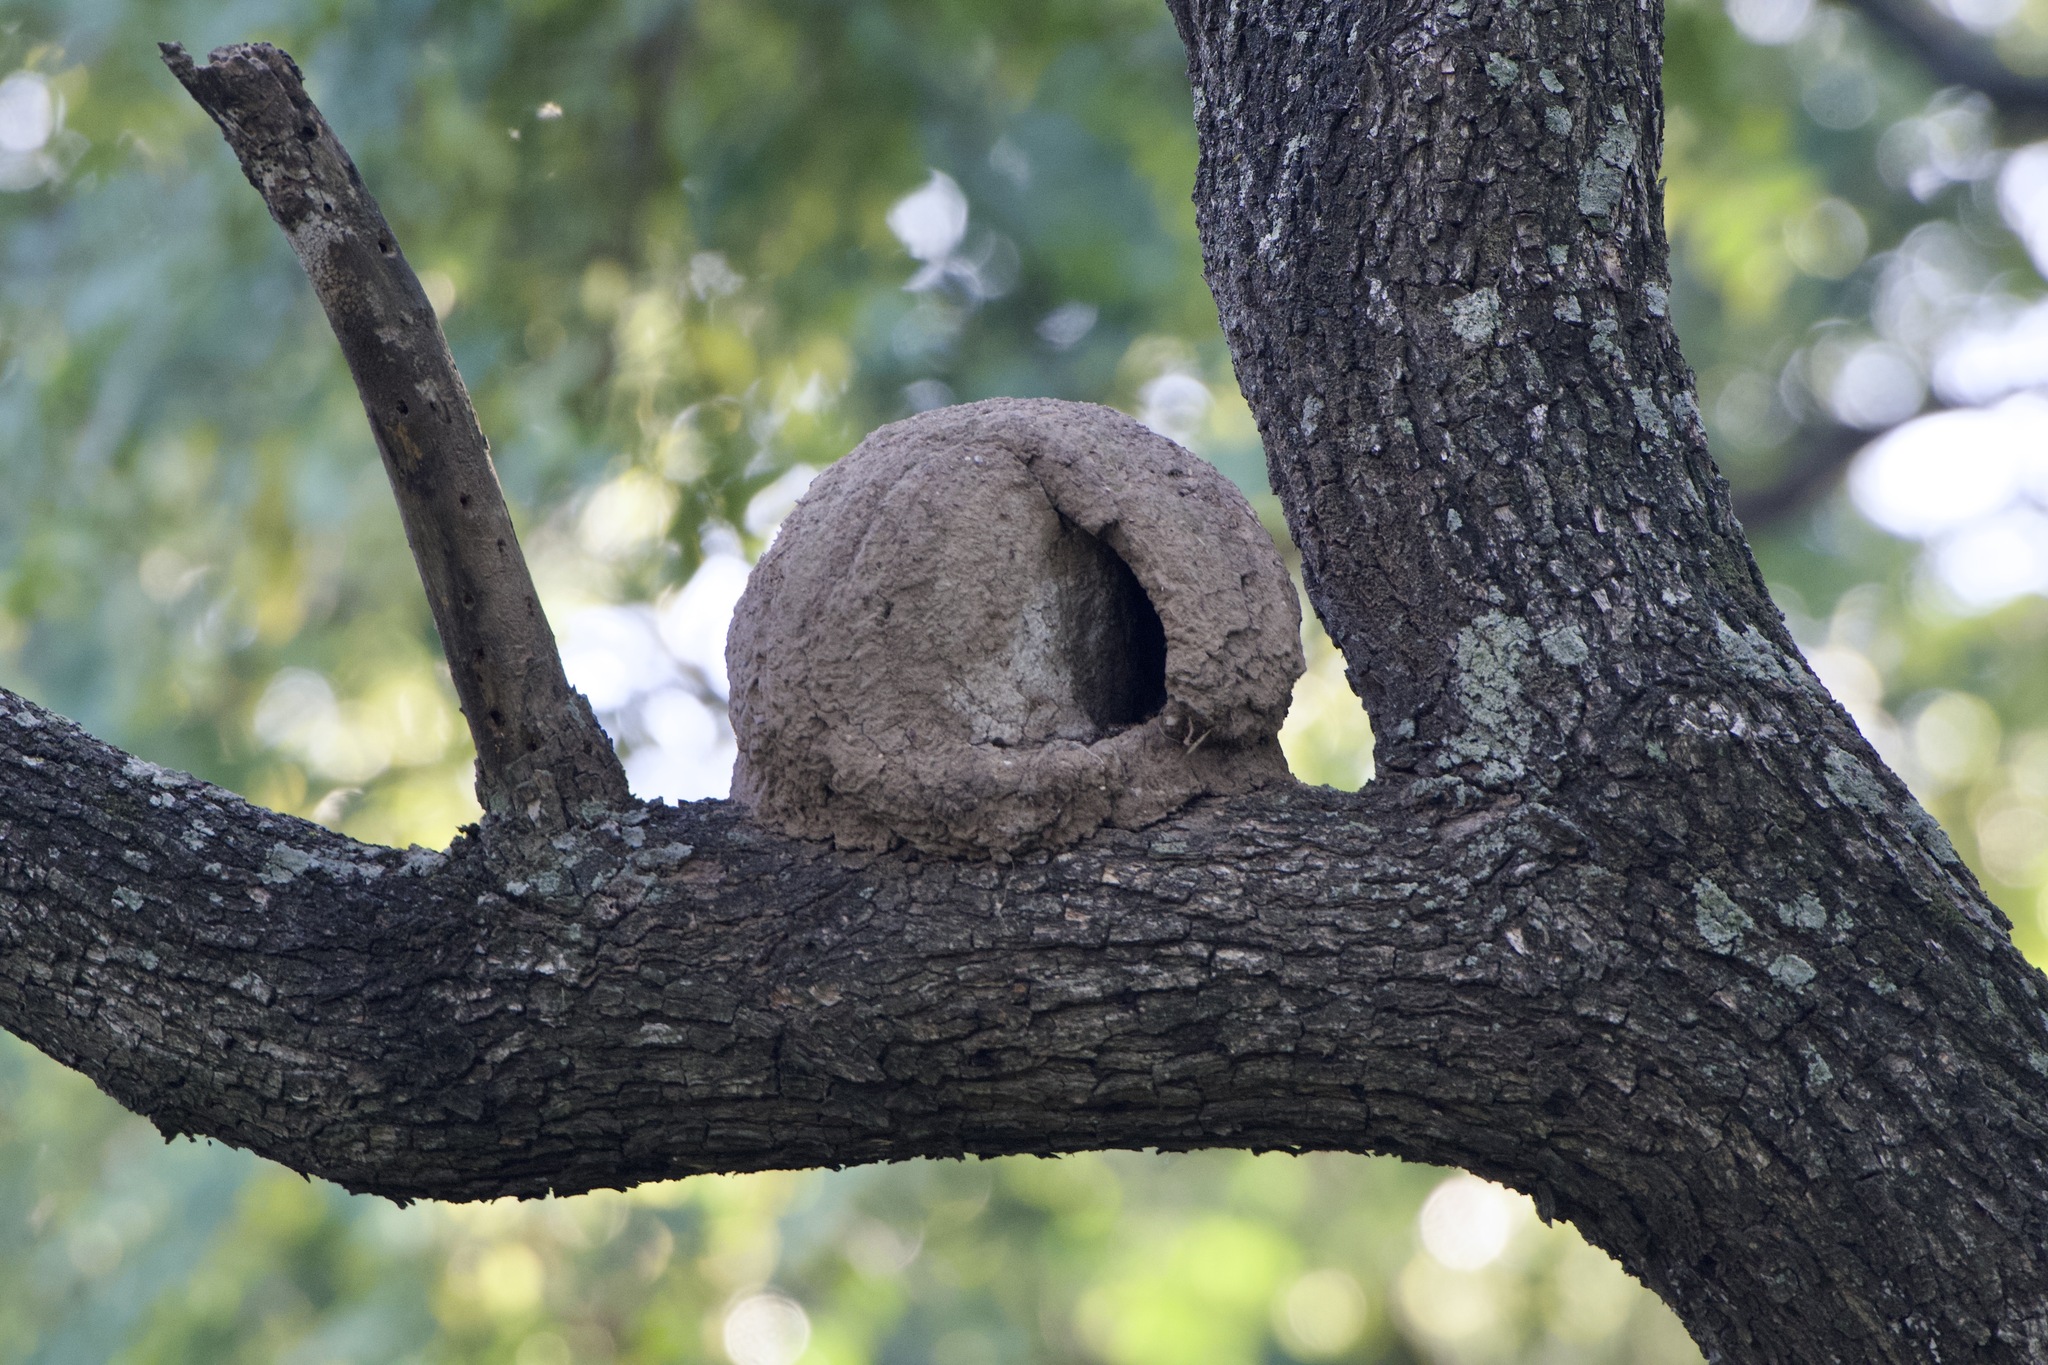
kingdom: Animalia
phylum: Chordata
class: Aves
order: Passeriformes
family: Furnariidae
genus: Furnarius
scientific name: Furnarius rufus
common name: Rufous hornero
